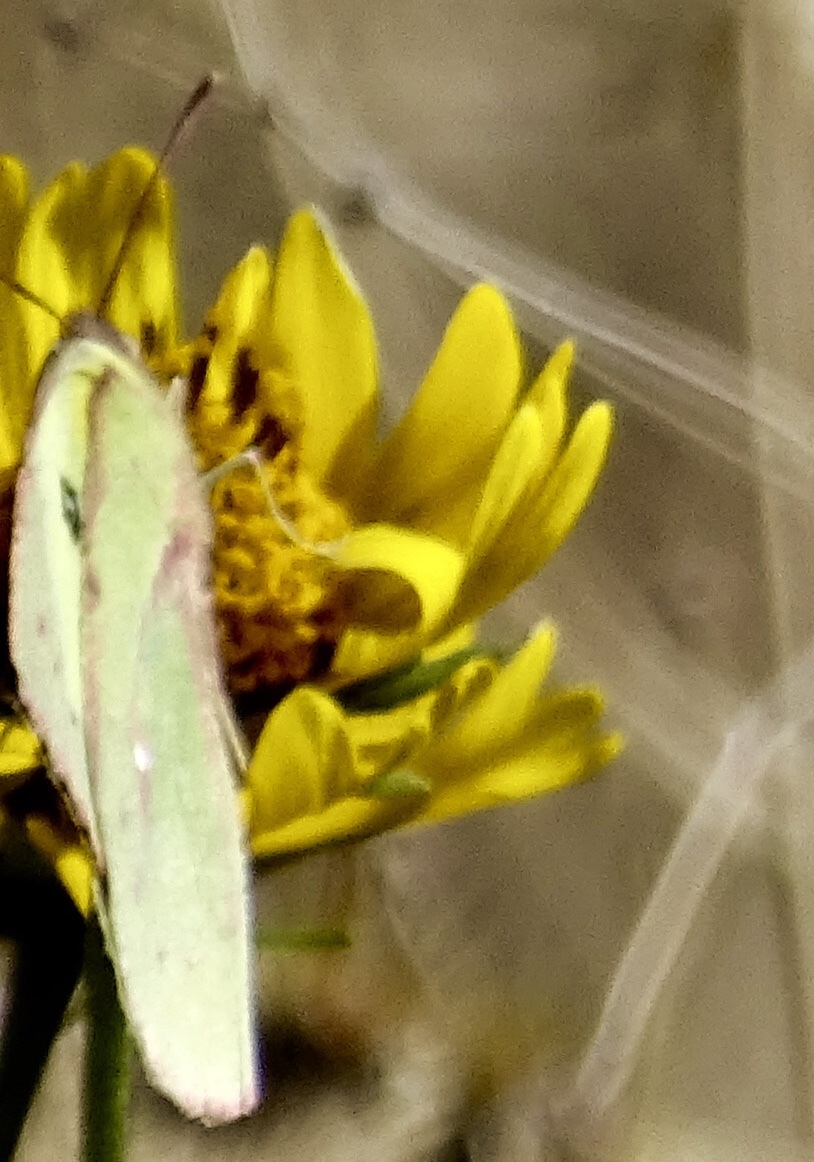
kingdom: Animalia
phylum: Arthropoda
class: Insecta
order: Lepidoptera
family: Pieridae
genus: Zerene
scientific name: Zerene cesonia
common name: Southern dogface
